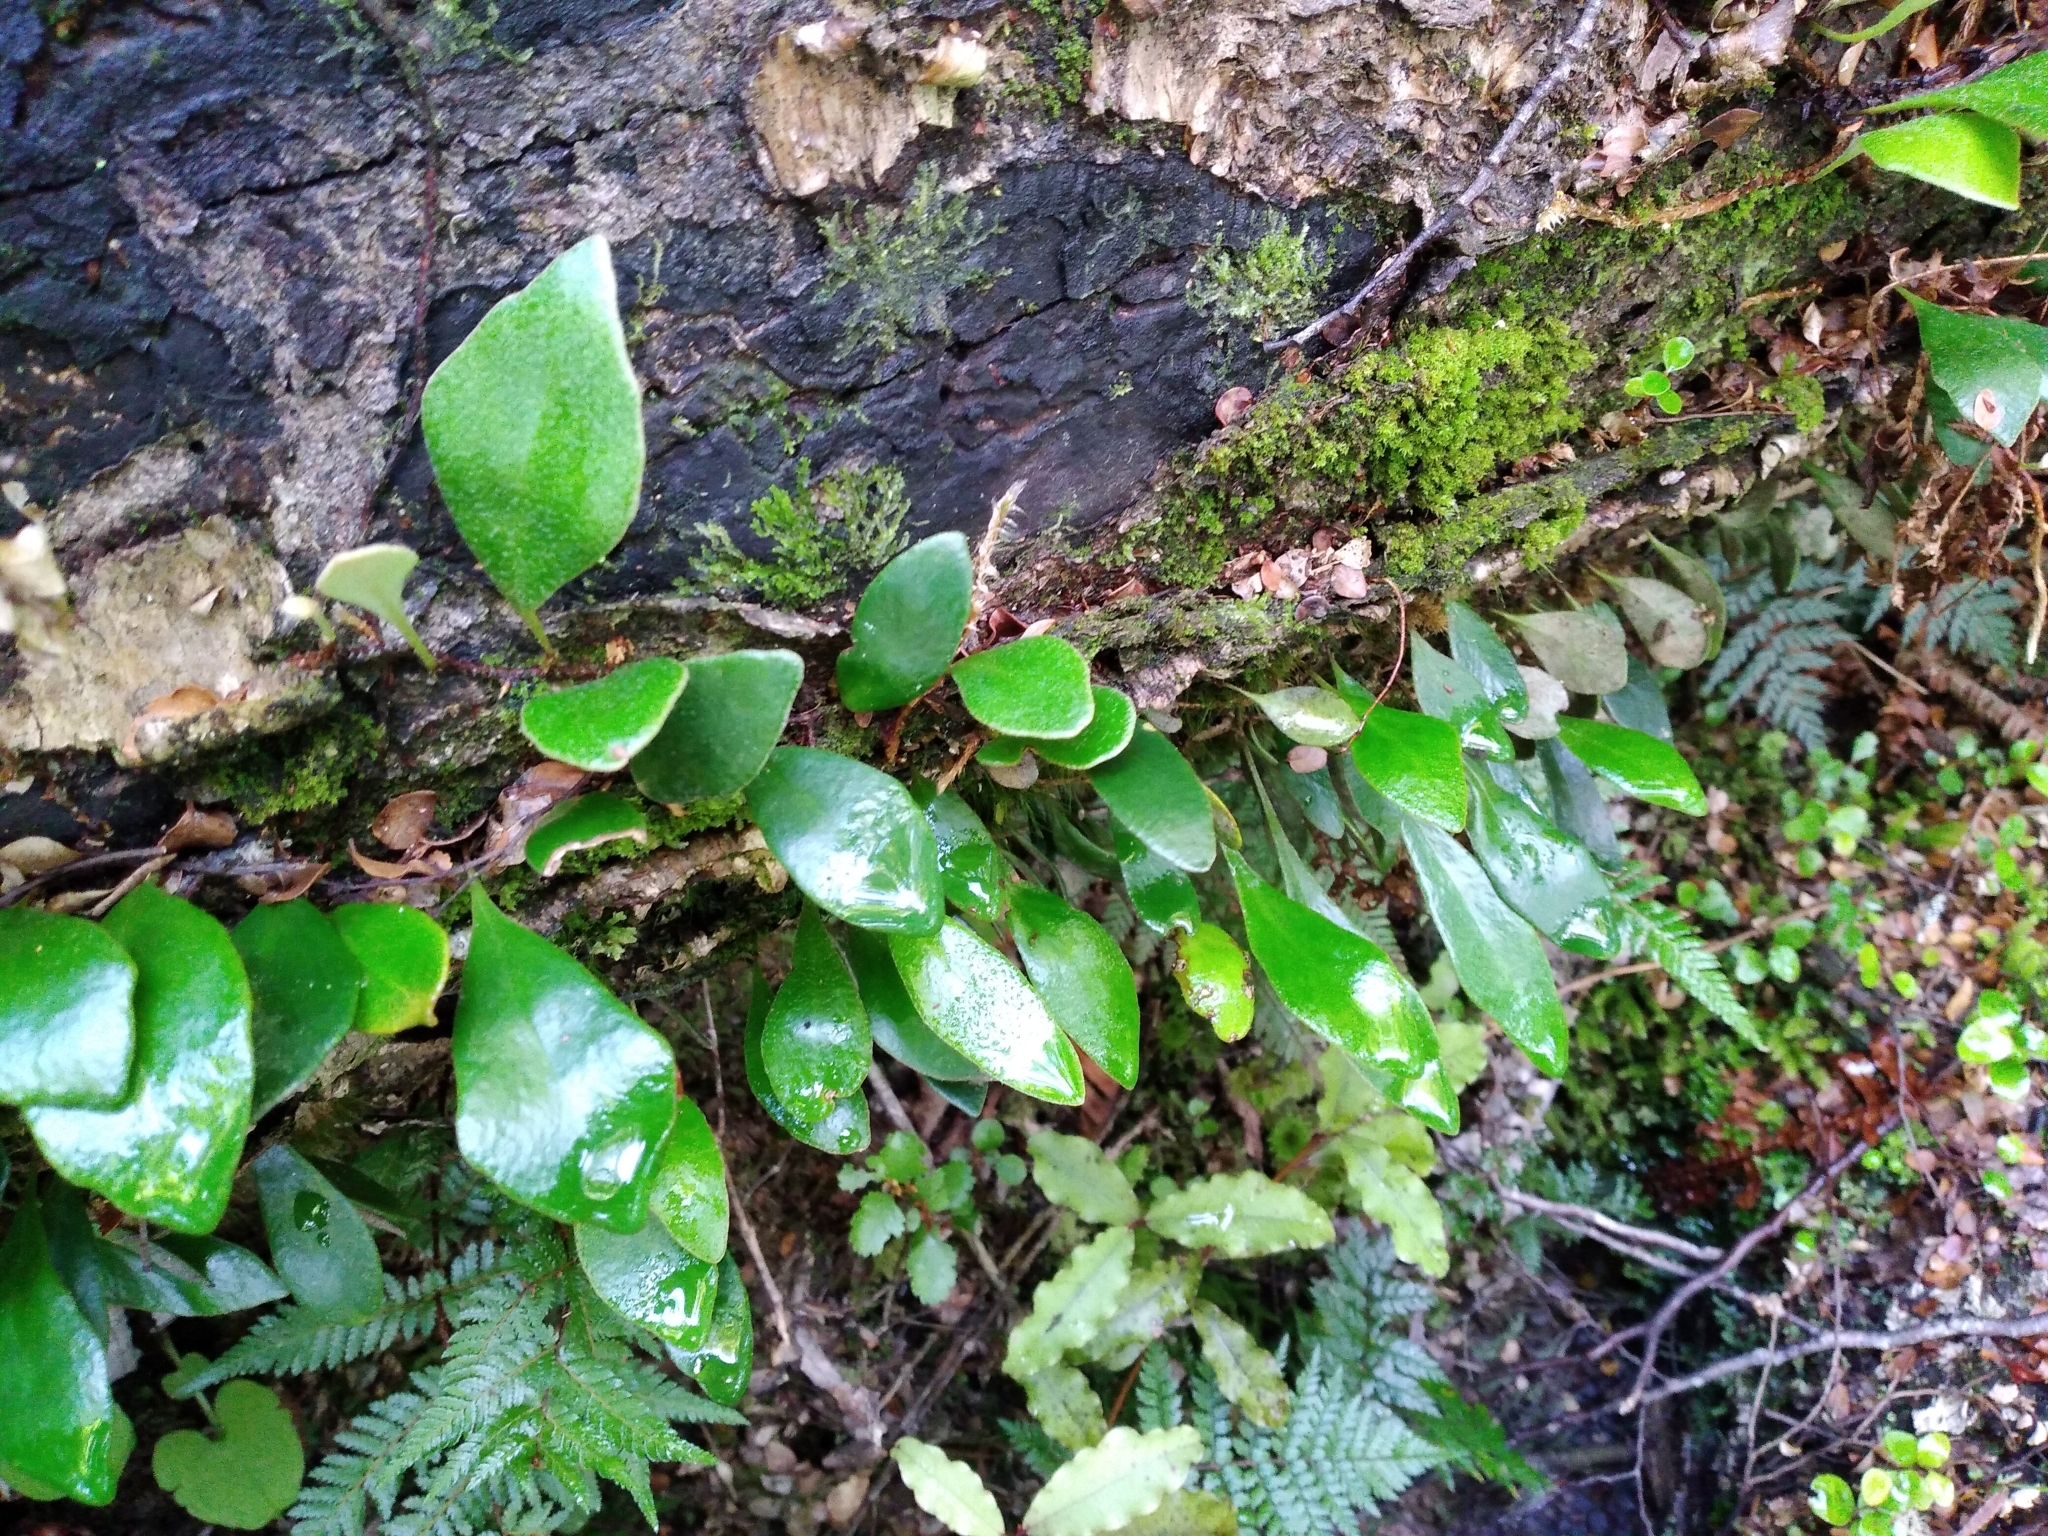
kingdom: Plantae
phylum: Tracheophyta
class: Polypodiopsida
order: Polypodiales
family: Polypodiaceae
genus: Pyrrosia
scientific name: Pyrrosia eleagnifolia
